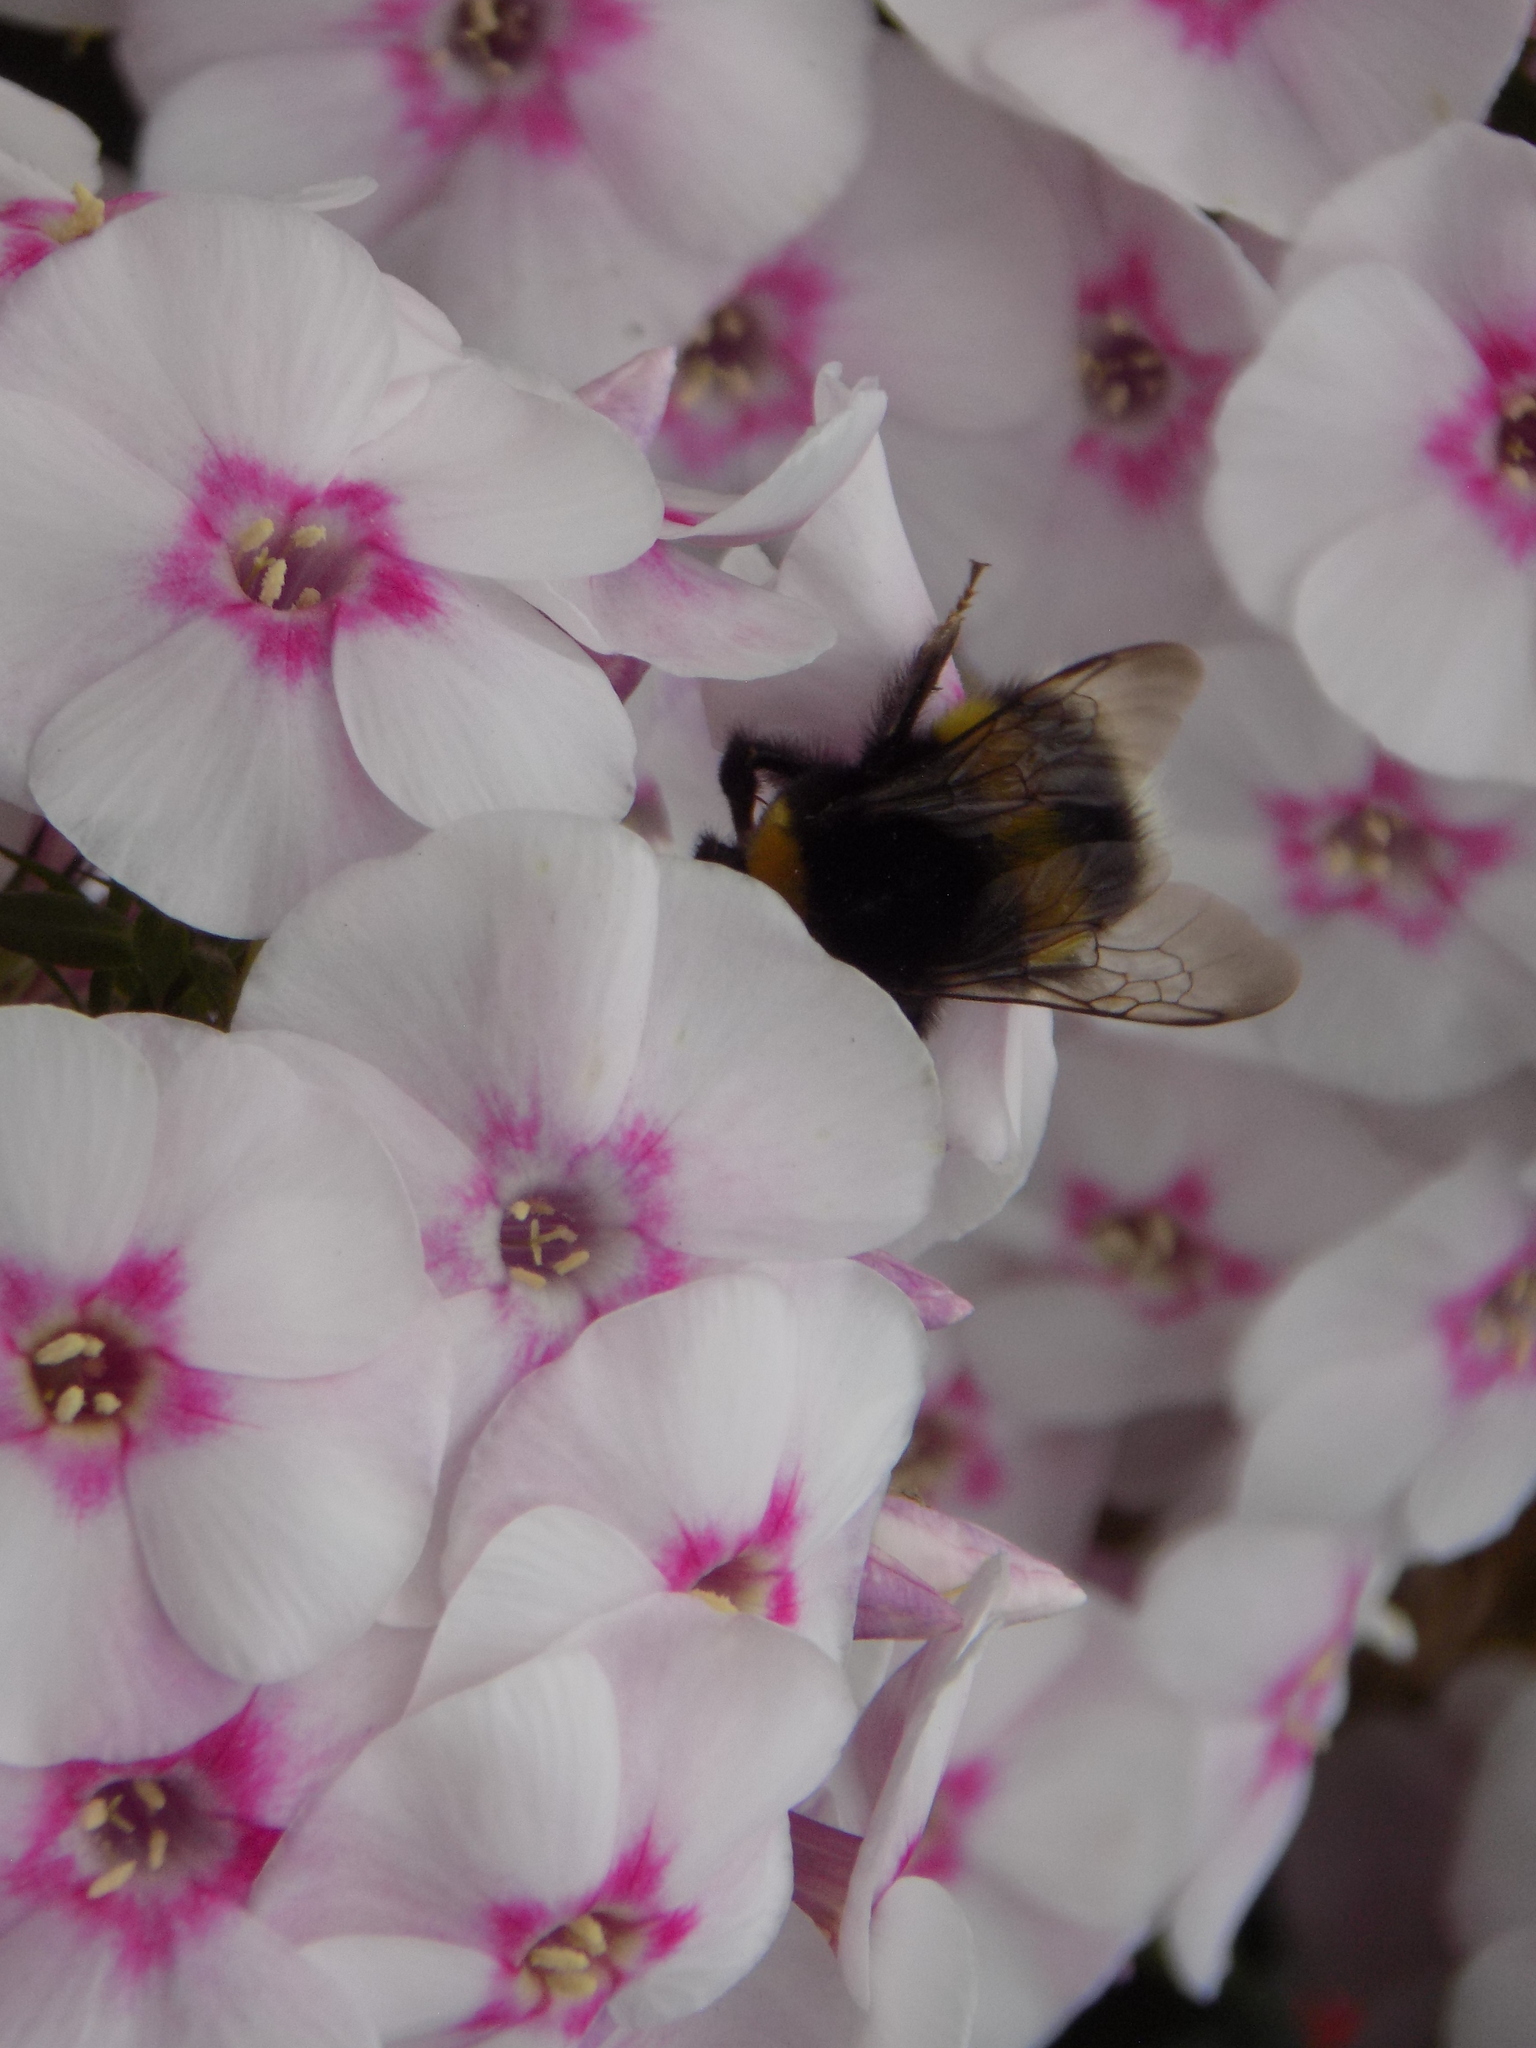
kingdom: Animalia
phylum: Arthropoda
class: Insecta
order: Hymenoptera
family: Apidae
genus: Bombus
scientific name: Bombus
